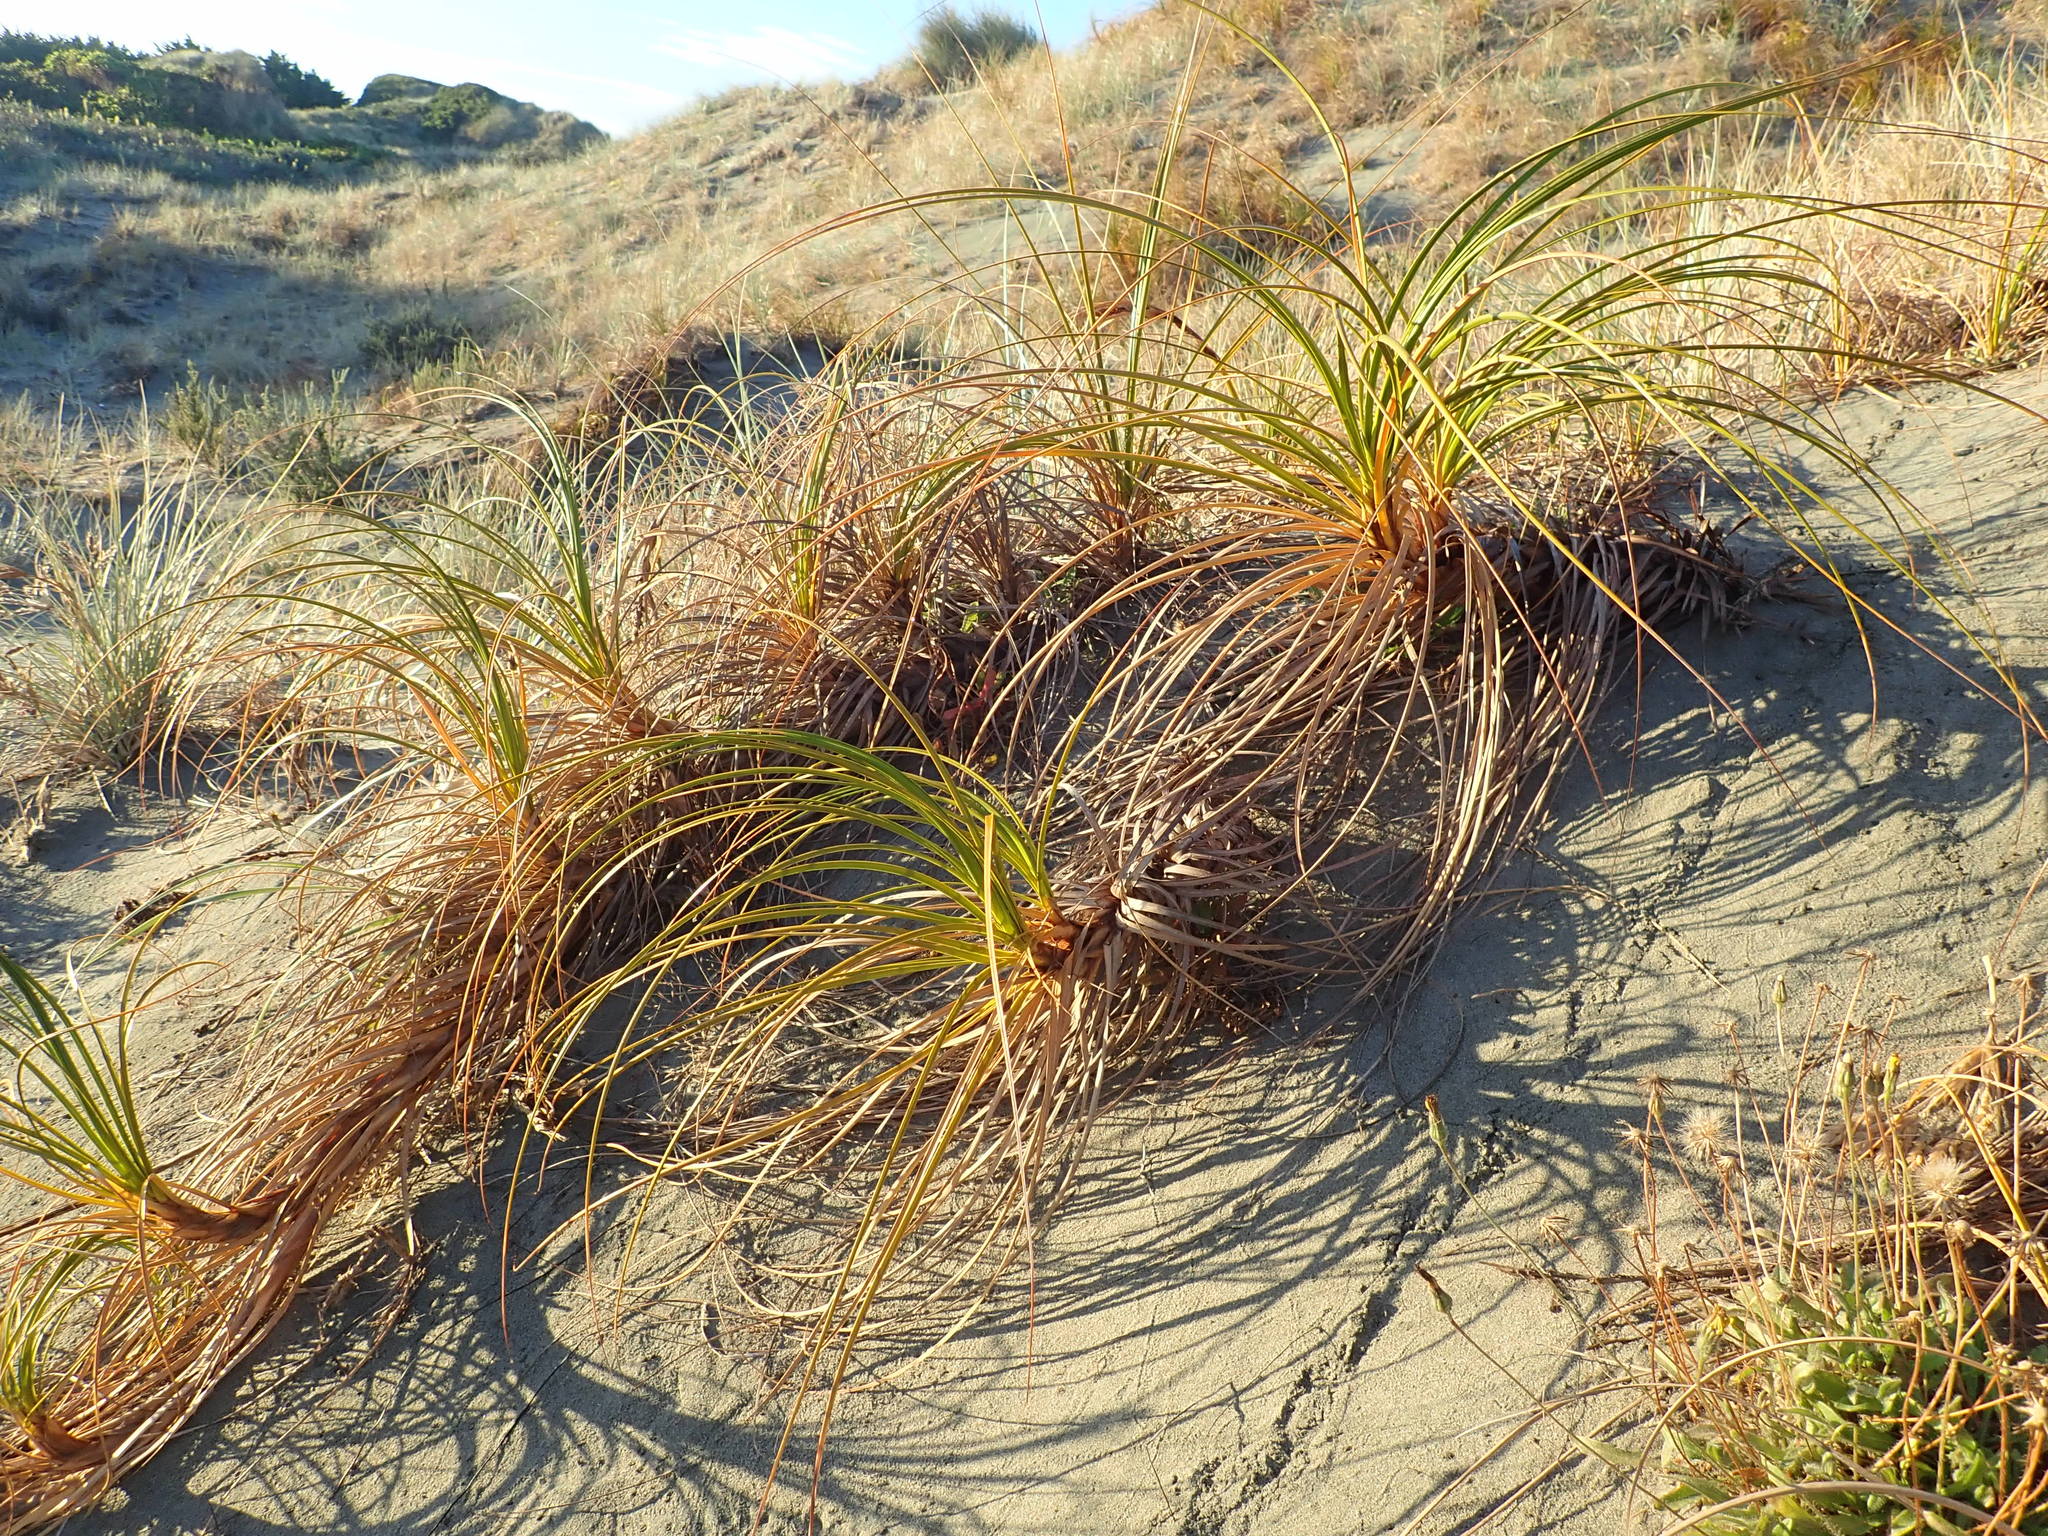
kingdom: Plantae
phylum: Tracheophyta
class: Liliopsida
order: Poales
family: Cyperaceae
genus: Ficinia
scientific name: Ficinia spiralis
